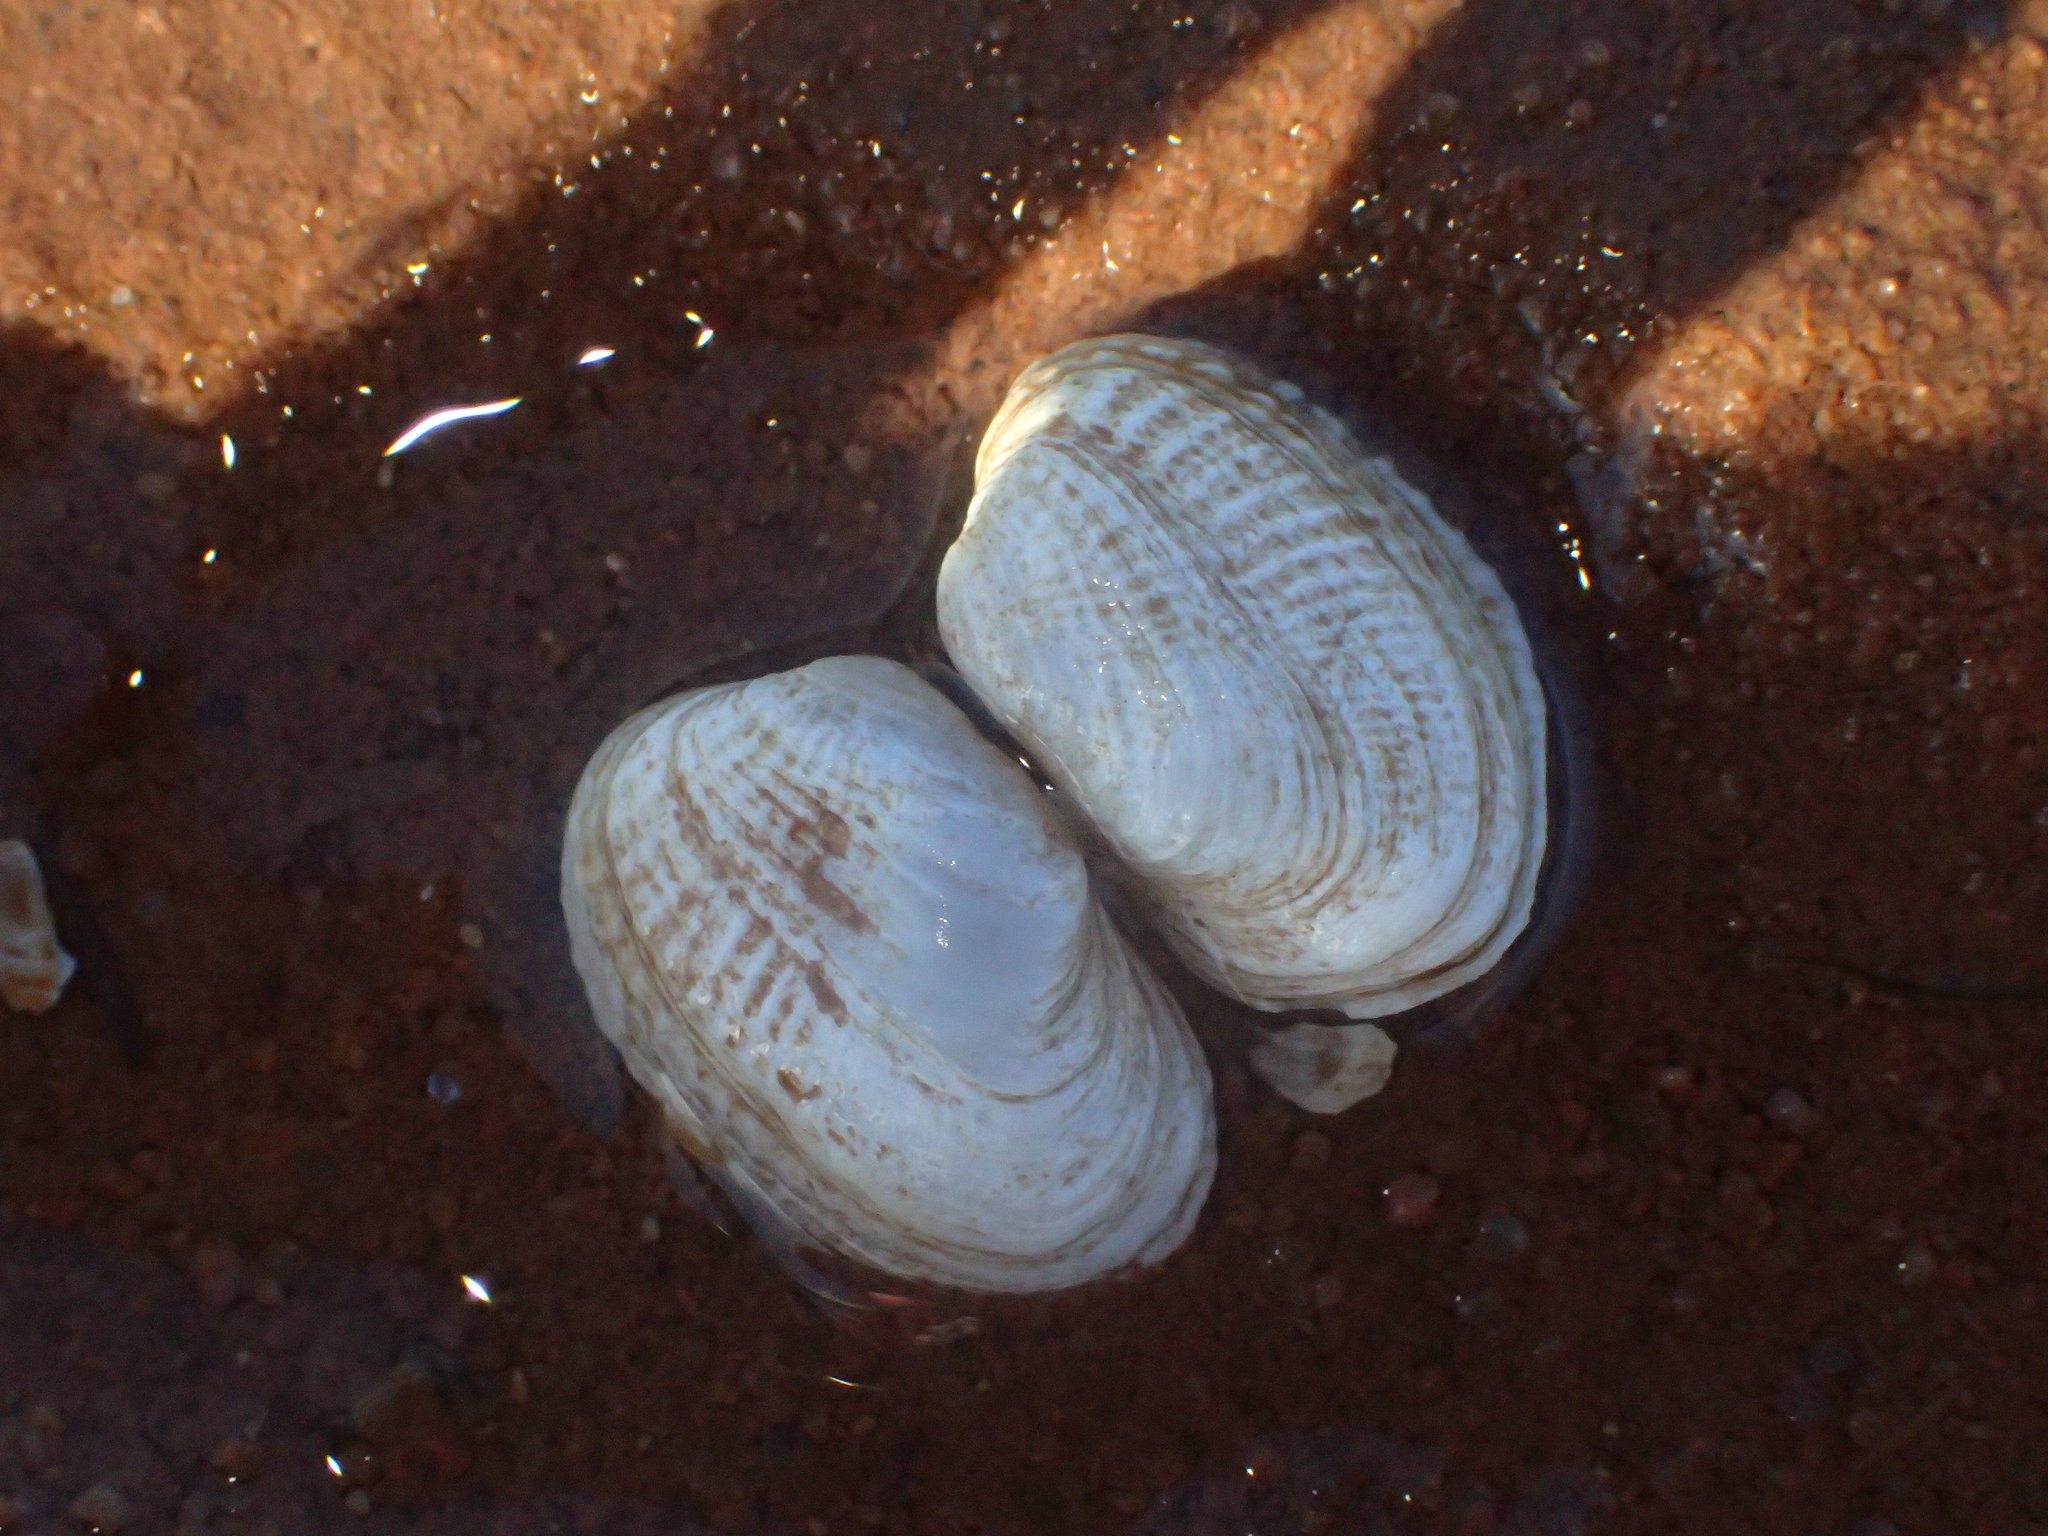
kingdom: Animalia
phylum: Mollusca
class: Bivalvia
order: Venerida
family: Veneridae
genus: Petricolaria
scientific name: Petricolaria pholadiformis
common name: American piddock
